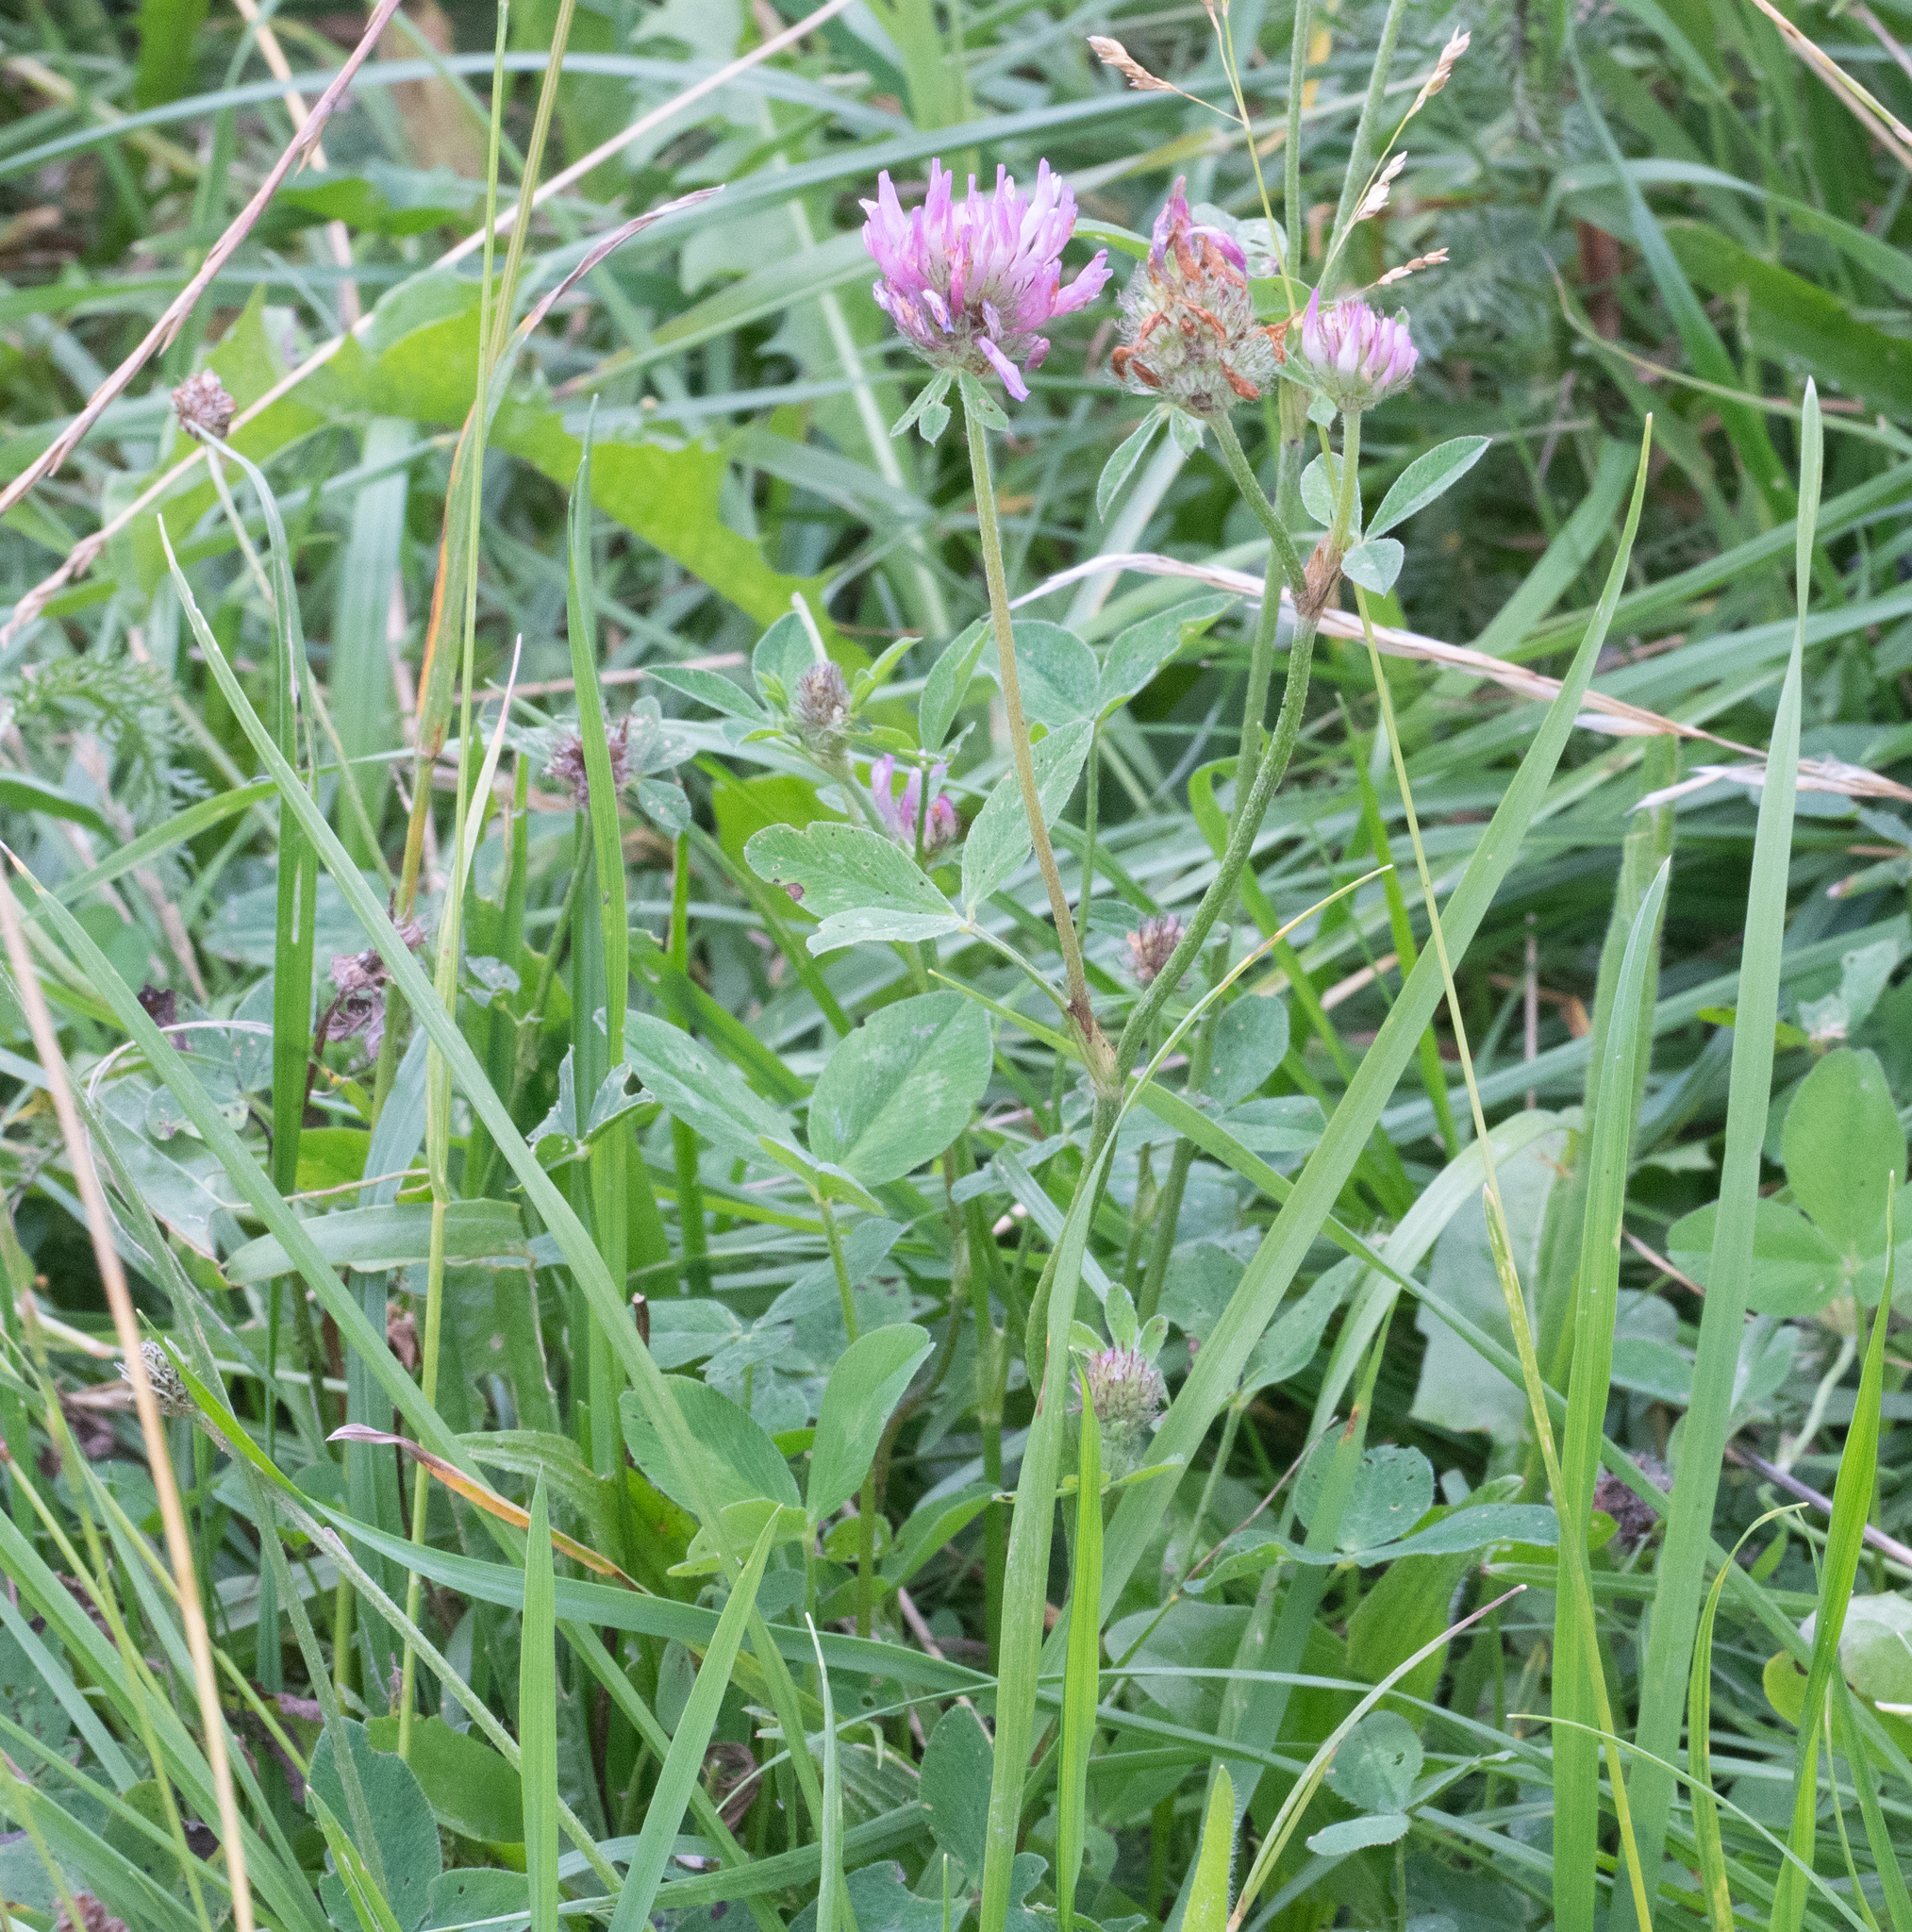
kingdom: Plantae
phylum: Tracheophyta
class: Magnoliopsida
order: Fabales
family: Fabaceae
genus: Trifolium
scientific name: Trifolium pratense
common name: Red clover
